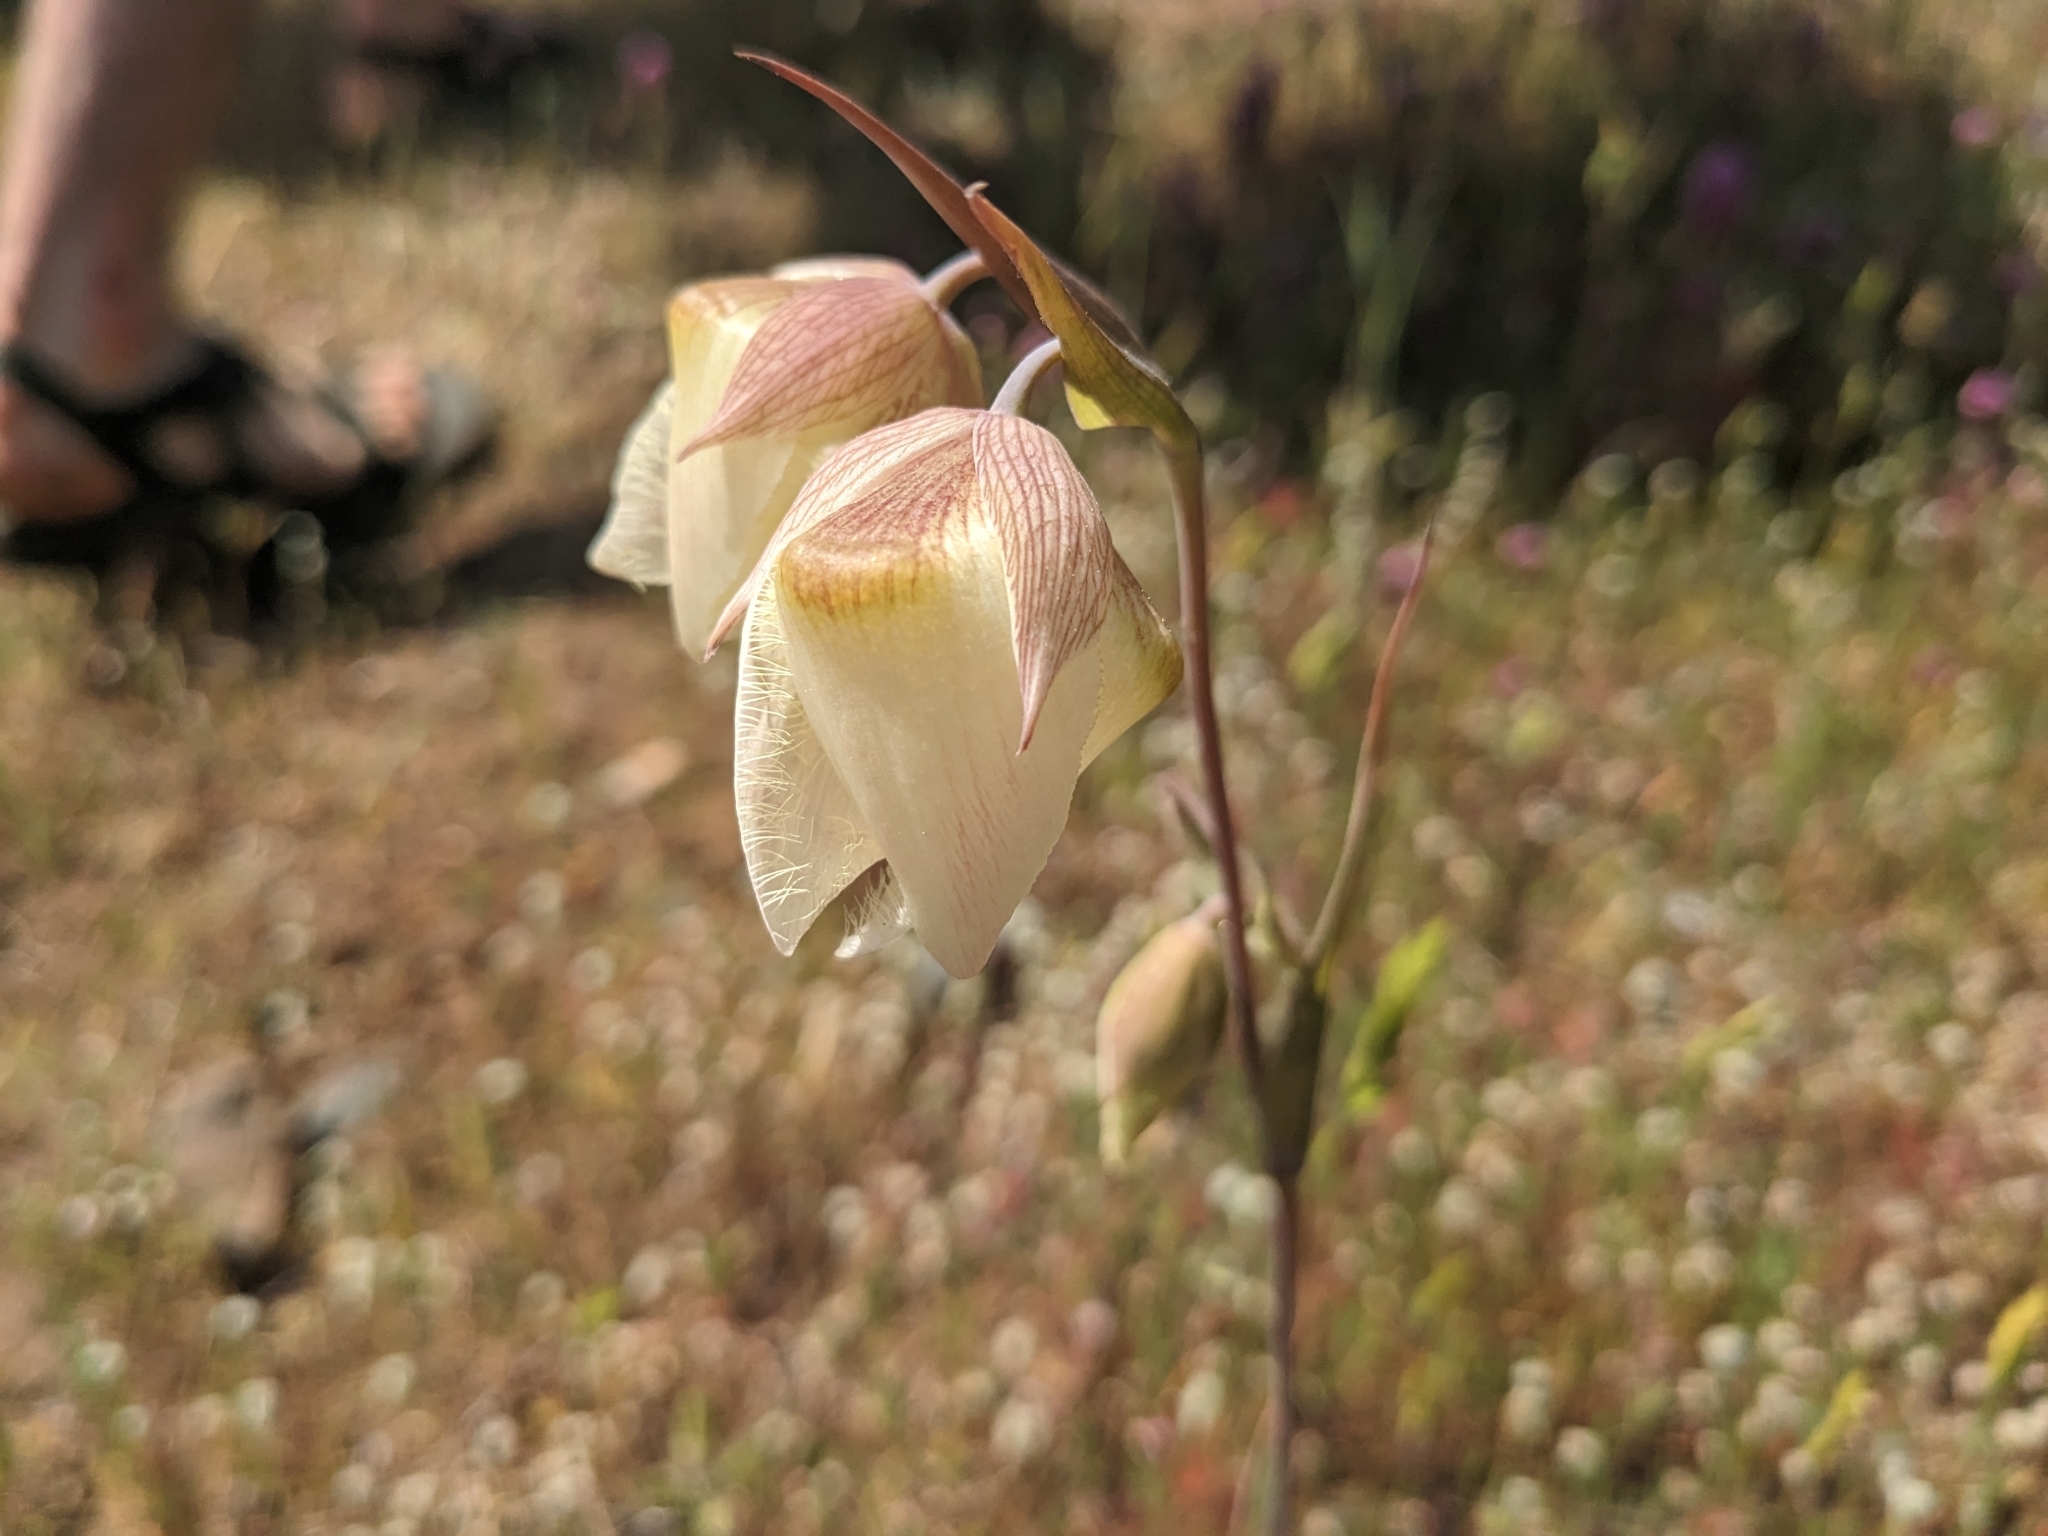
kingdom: Plantae
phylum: Tracheophyta
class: Liliopsida
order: Liliales
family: Liliaceae
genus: Calochortus
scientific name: Calochortus albus
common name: Fairy-lantern
